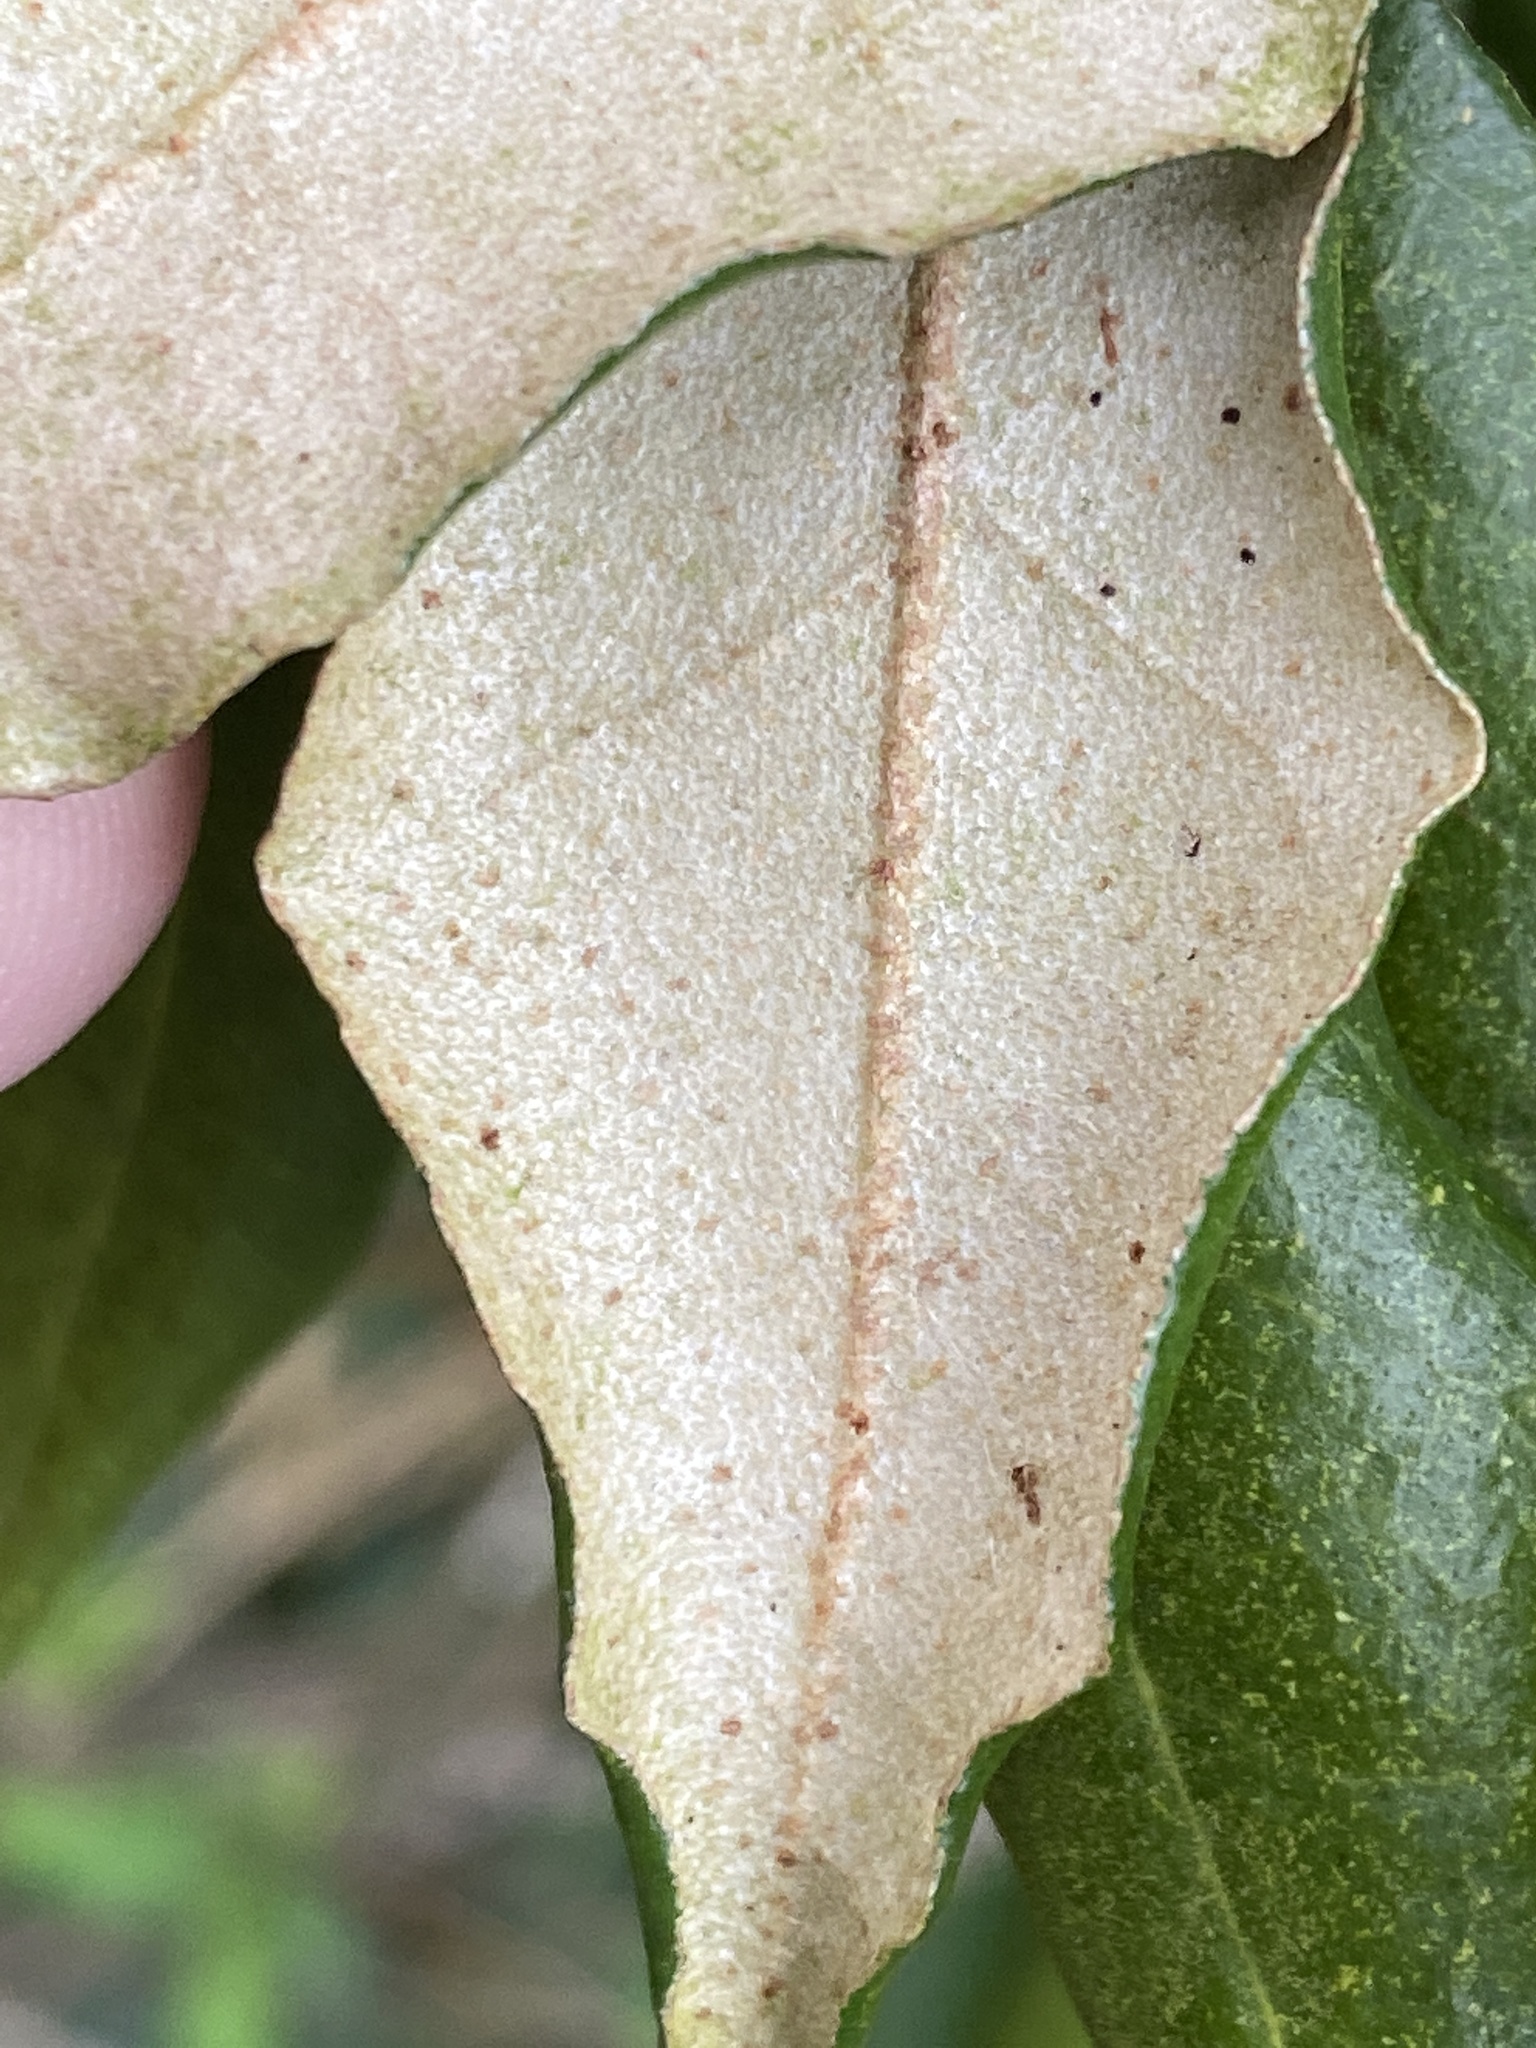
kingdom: Plantae
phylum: Tracheophyta
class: Magnoliopsida
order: Rosales
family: Elaeagnaceae
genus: Elaeagnus
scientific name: Elaeagnus pungens
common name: Spiny oleaster
